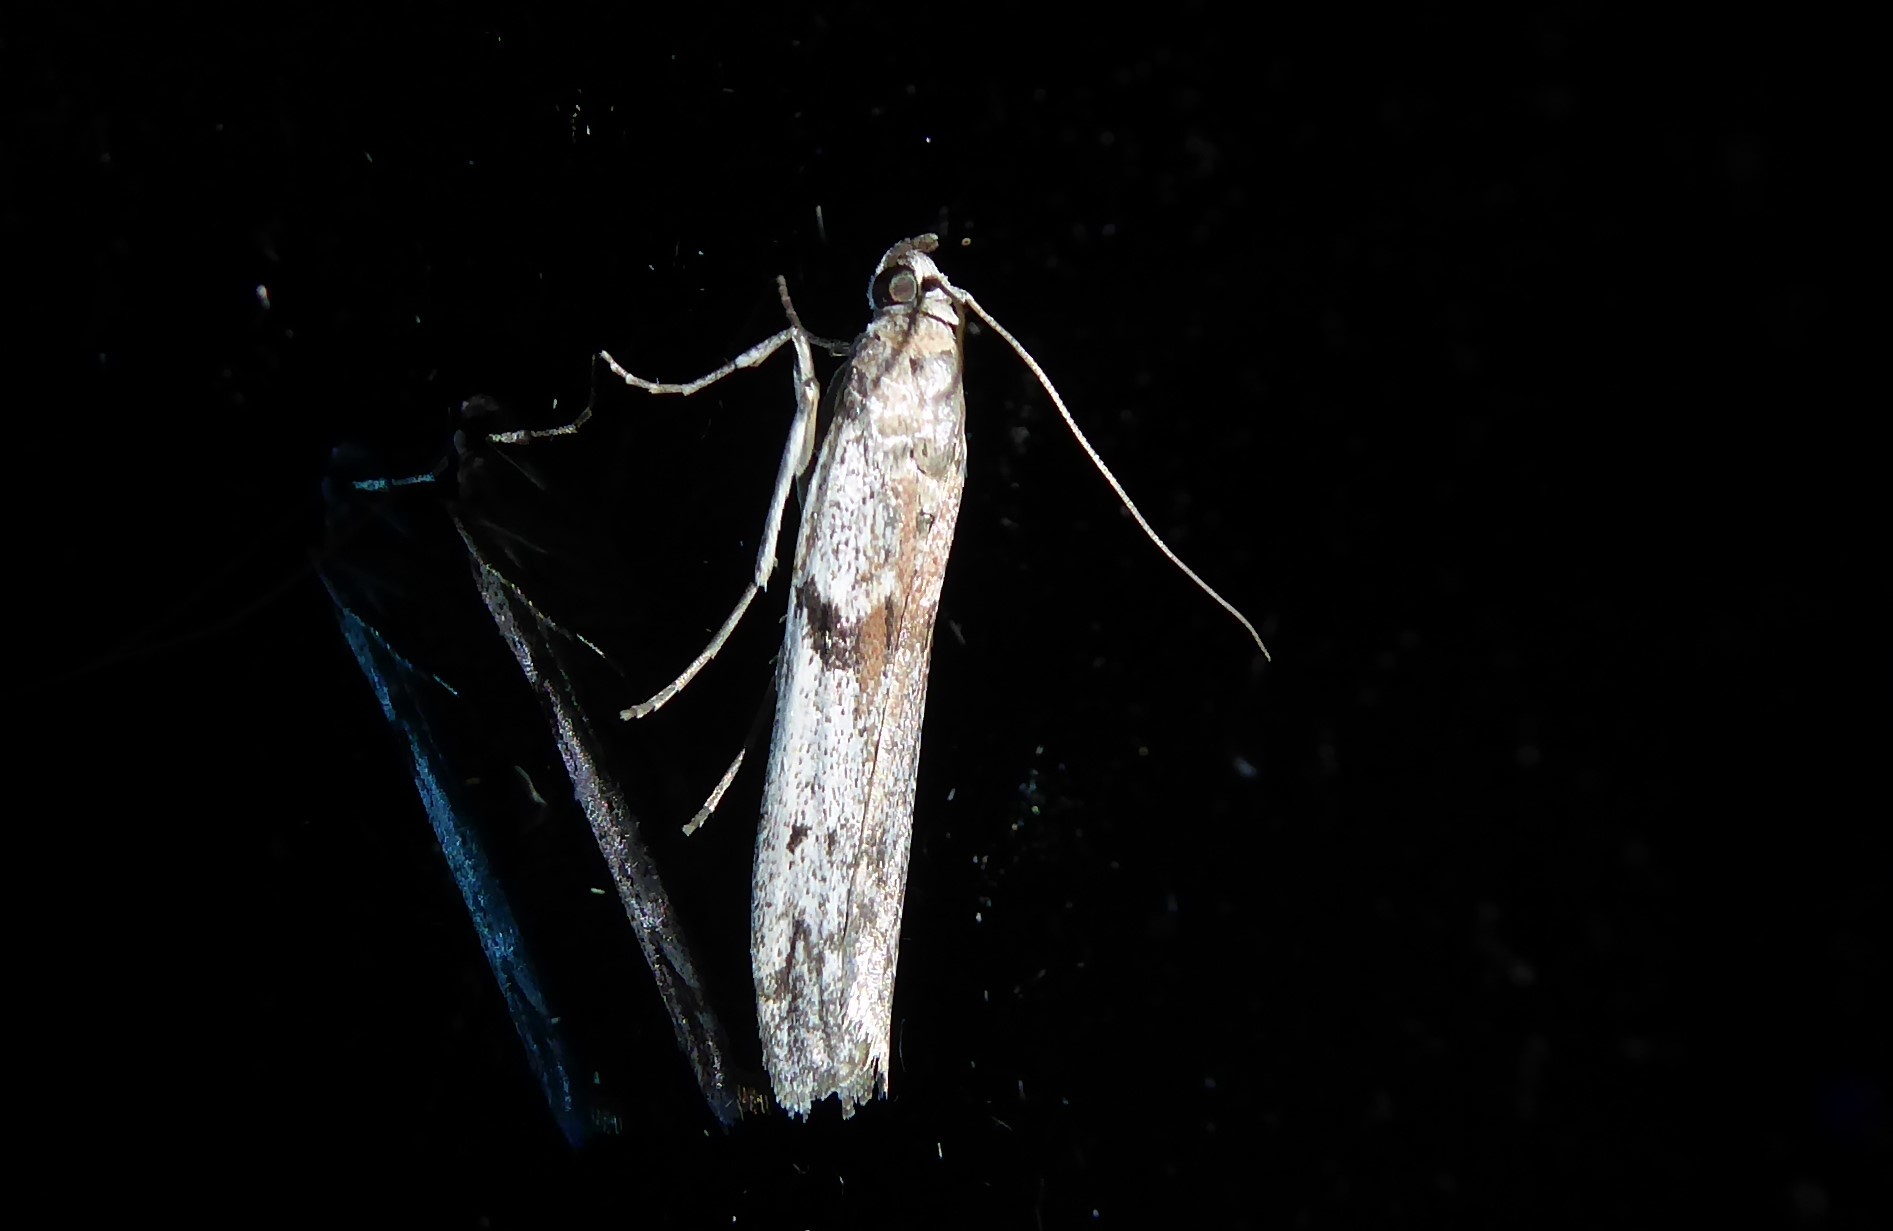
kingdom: Animalia
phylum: Arthropoda
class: Insecta
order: Lepidoptera
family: Pyralidae
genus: Patagoniodes
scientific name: Patagoniodes farinaria
